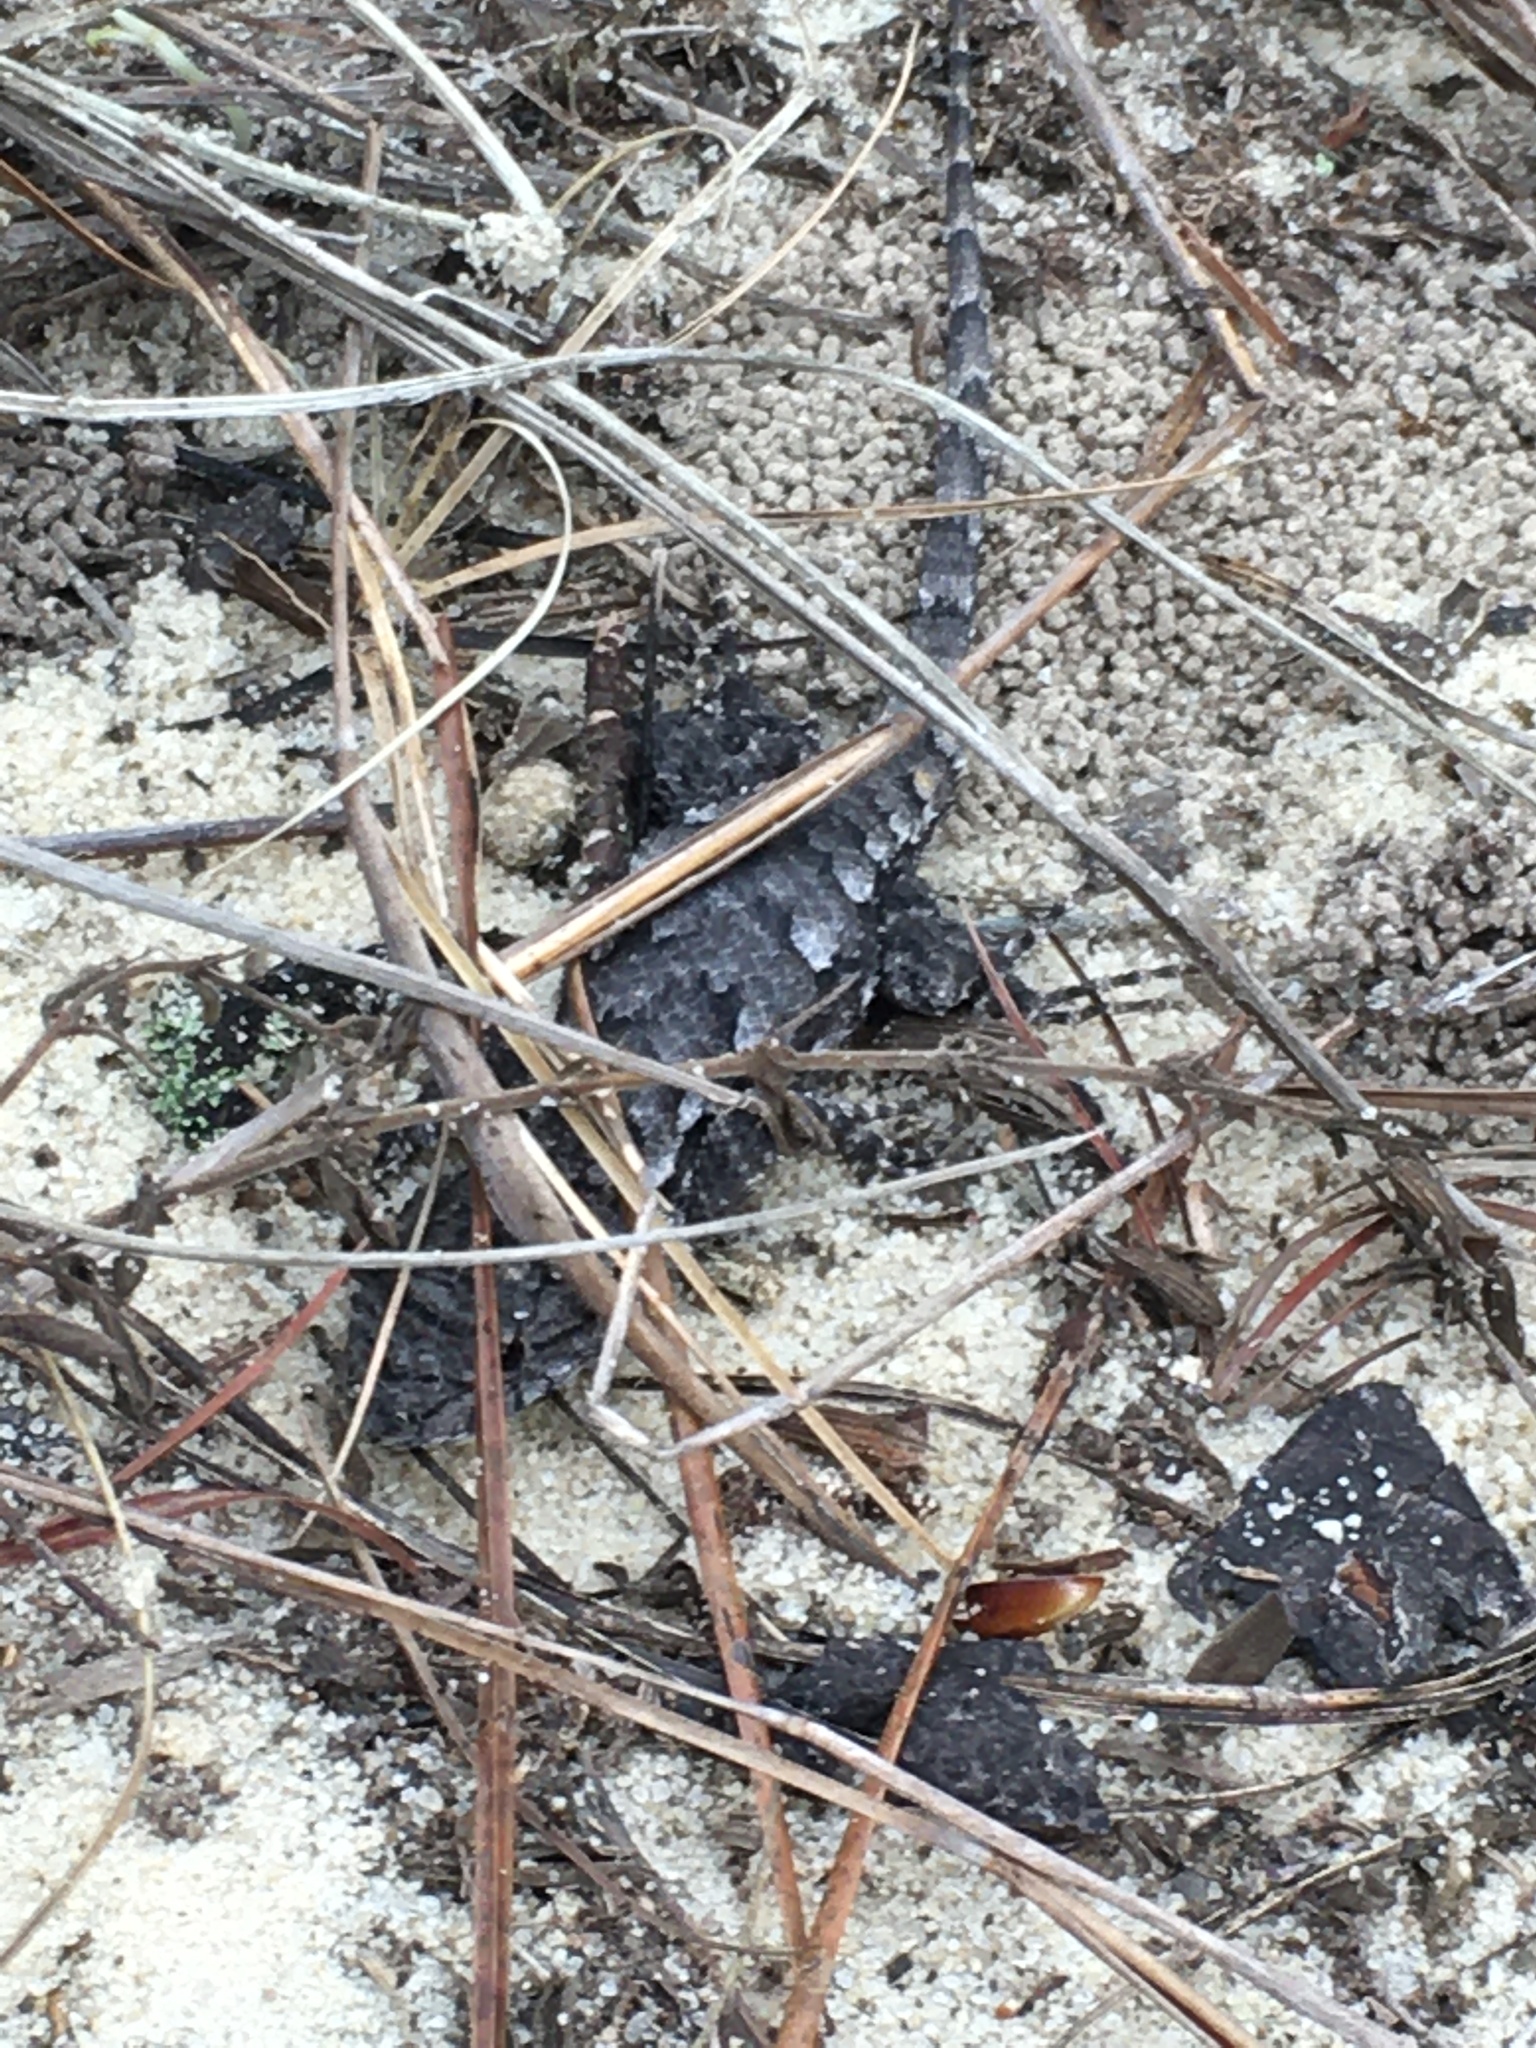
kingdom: Animalia
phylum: Chordata
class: Squamata
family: Phrynosomatidae
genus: Sceloporus
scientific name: Sceloporus undulatus
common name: Eastern fence lizard
